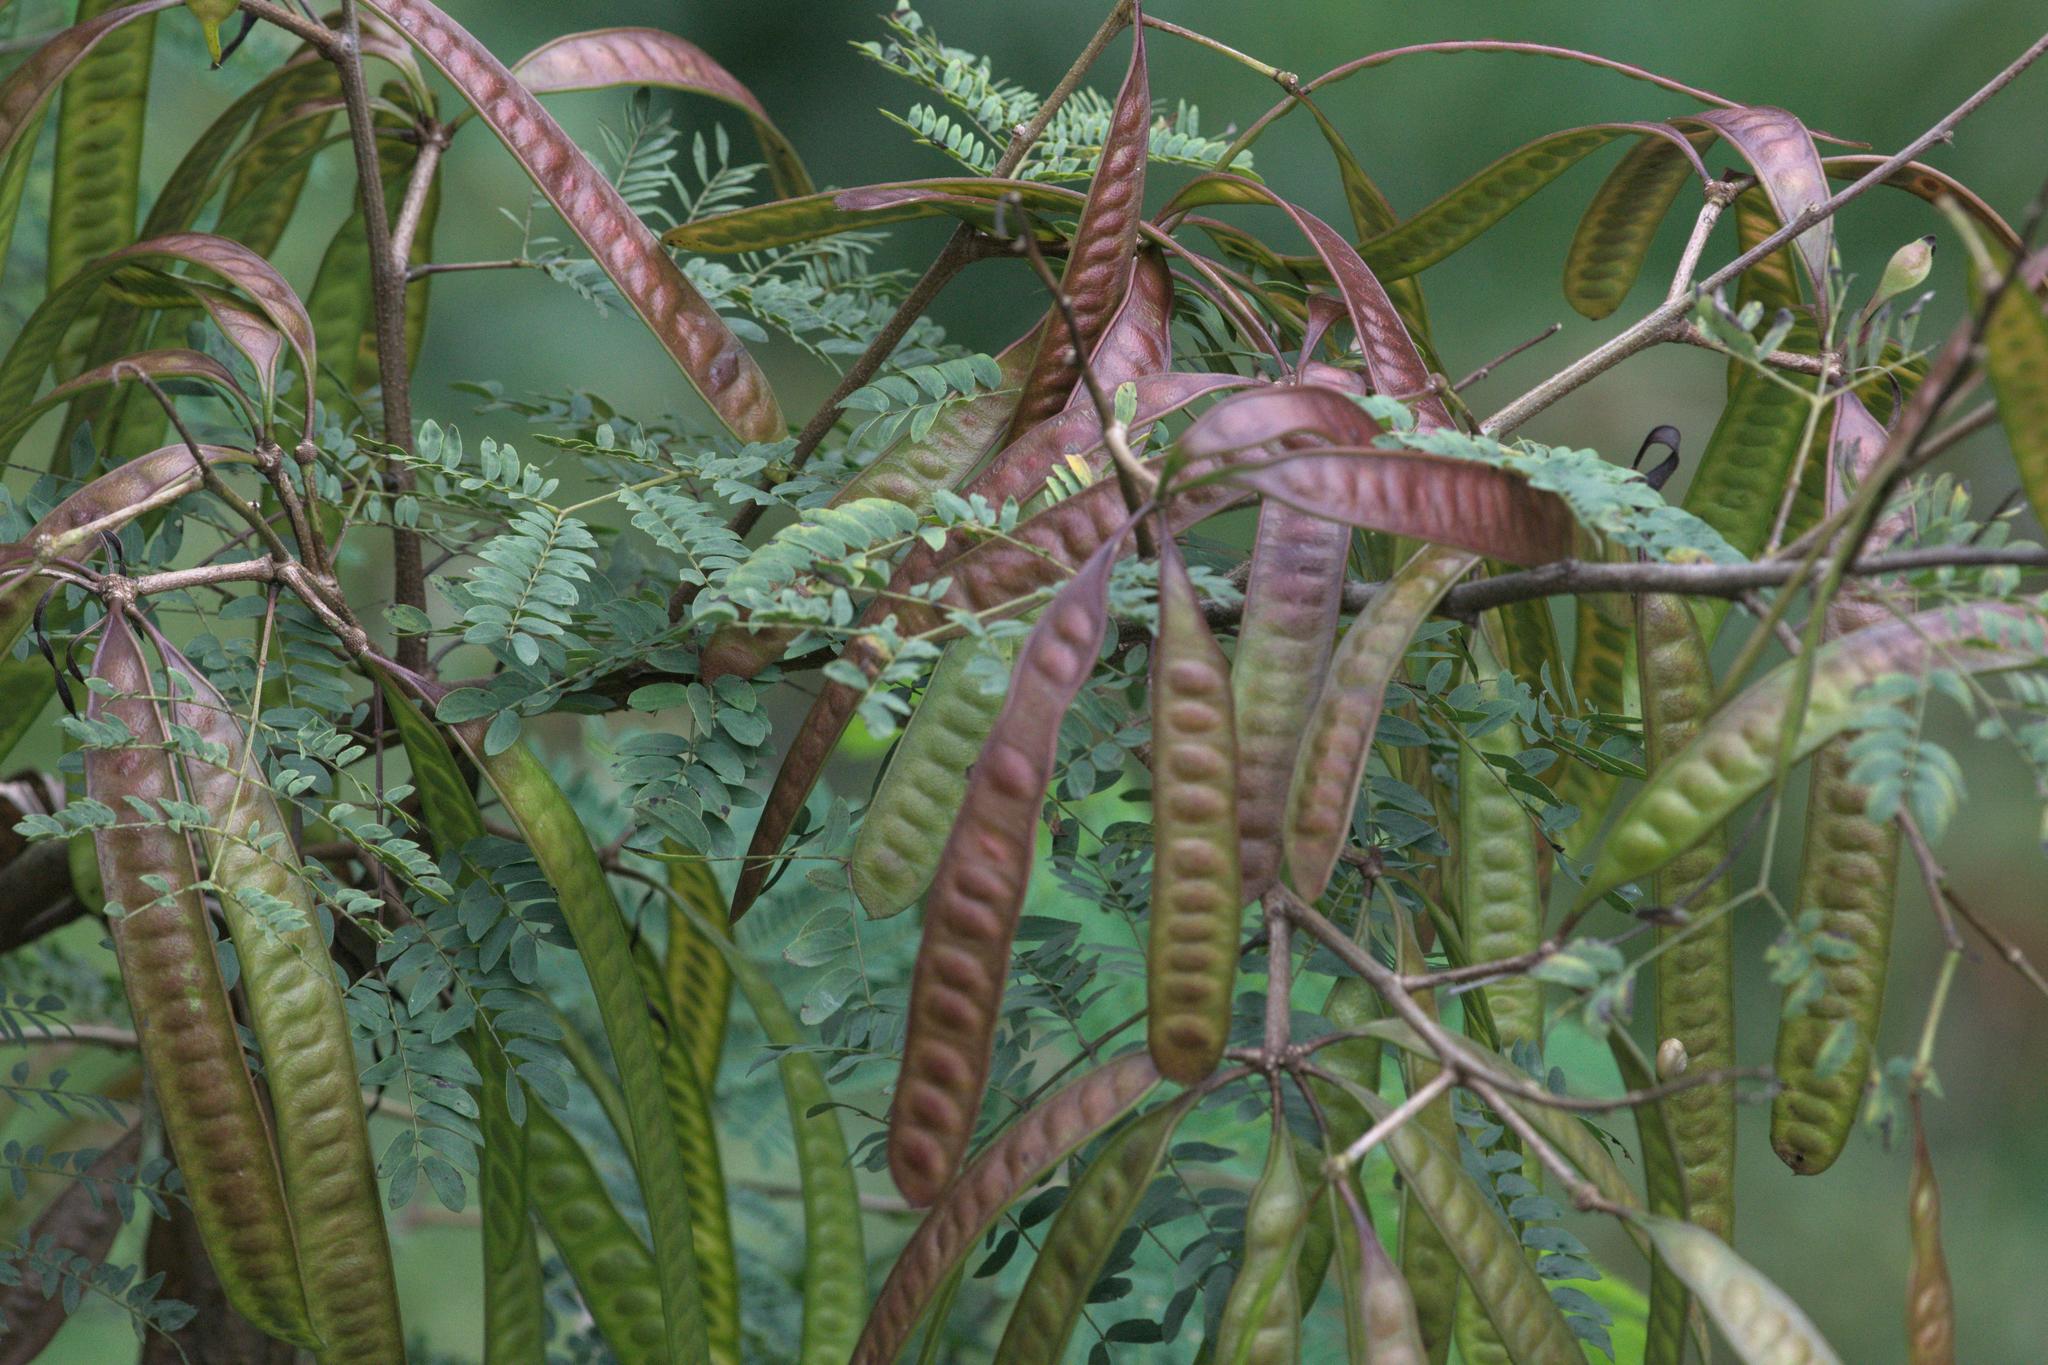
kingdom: Plantae
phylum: Tracheophyta
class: Magnoliopsida
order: Fabales
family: Fabaceae
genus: Leucaena
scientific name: Leucaena leucocephala
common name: White leadtree
